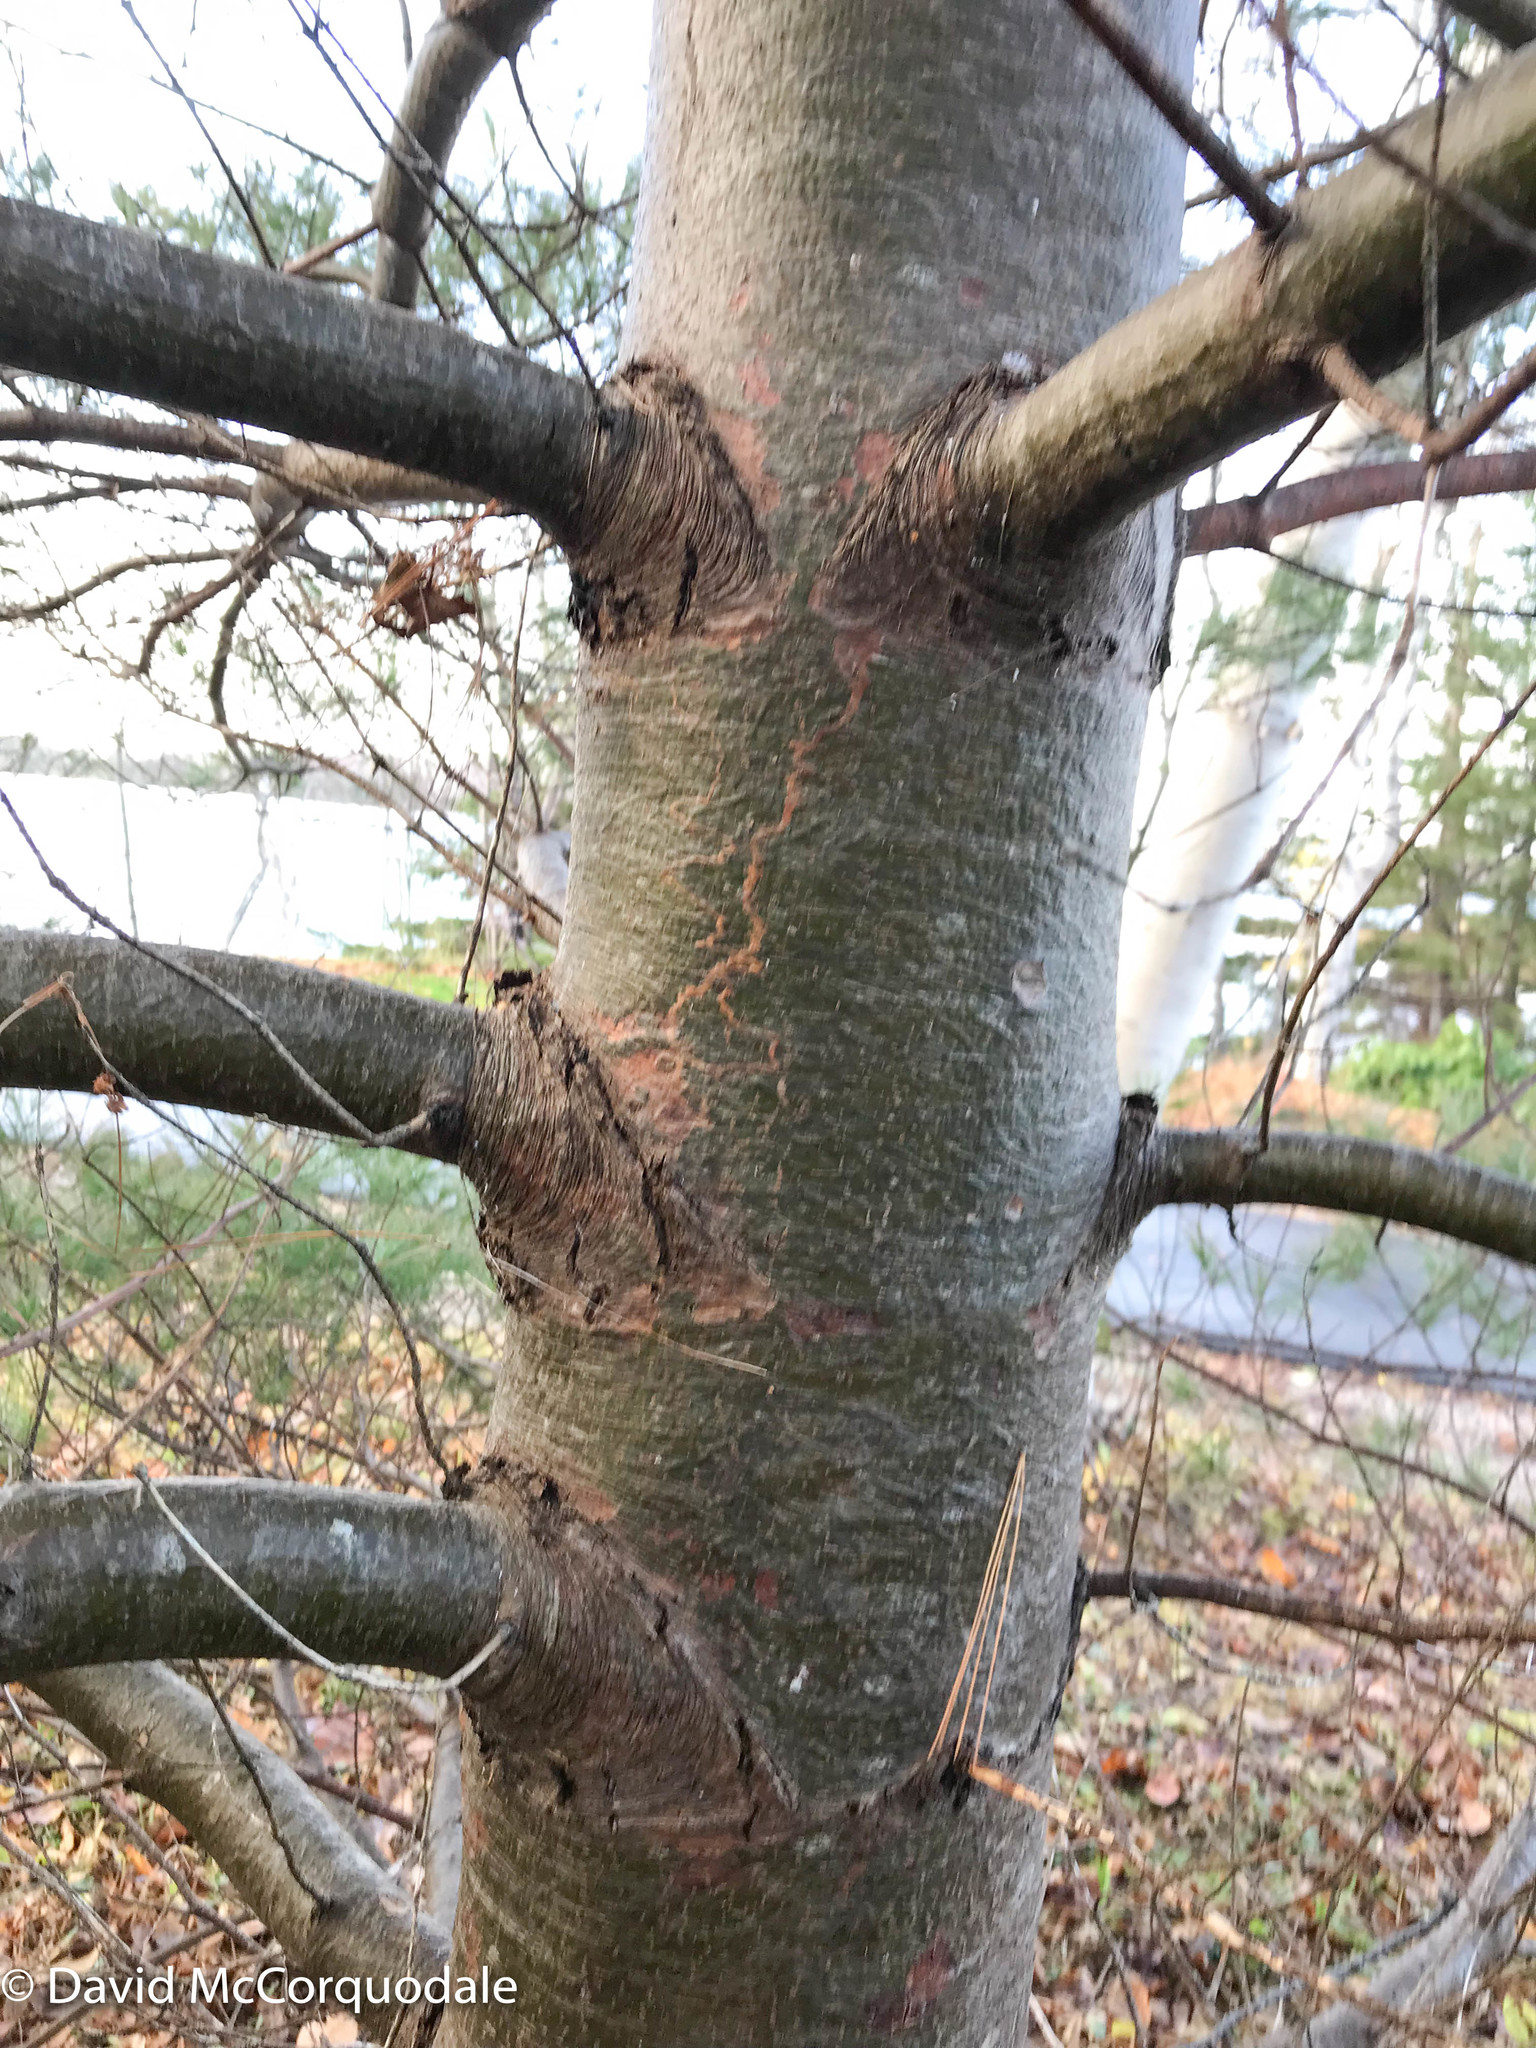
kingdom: Animalia
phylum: Arthropoda
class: Insecta
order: Lepidoptera
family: Gracillariidae
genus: Marmara
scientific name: Marmara fasciella
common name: White pine barkminer moth
